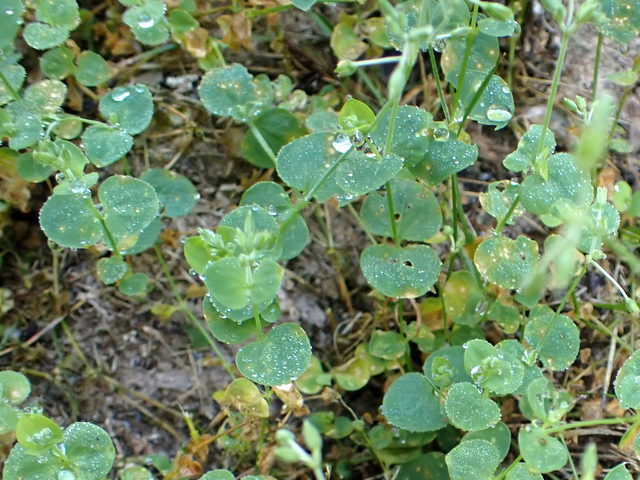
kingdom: Plantae
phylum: Tracheophyta
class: Magnoliopsida
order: Caryophyllales
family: Caryophyllaceae
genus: Drymaria
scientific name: Drymaria cordata
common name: Whitesnow
